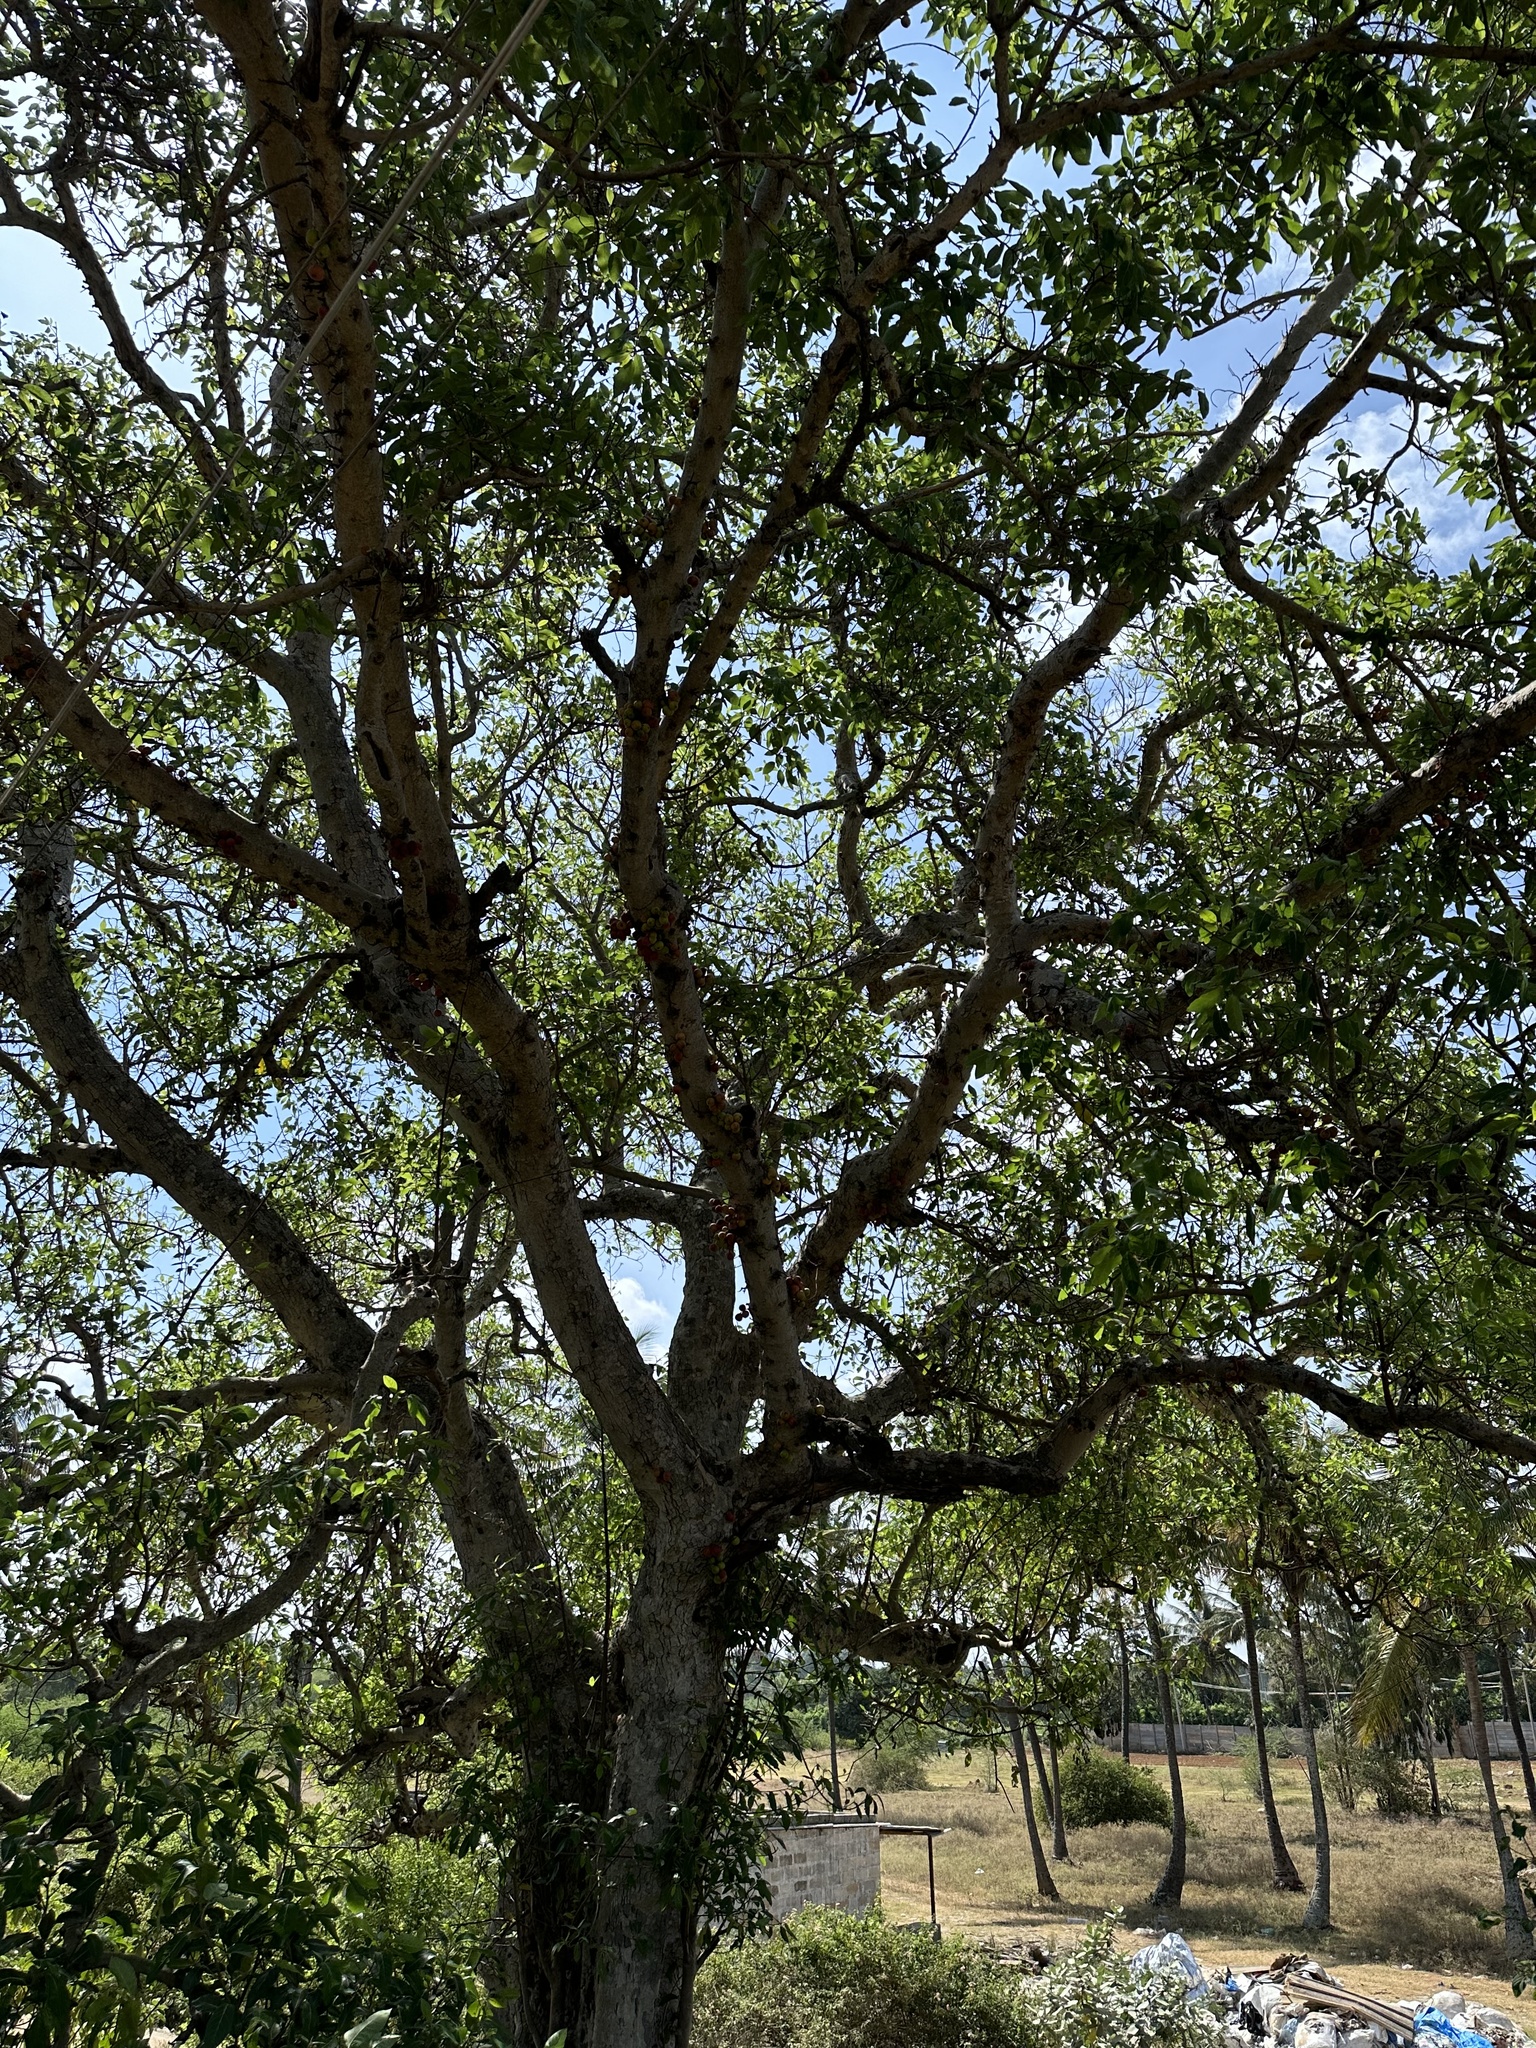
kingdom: Plantae
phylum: Tracheophyta
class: Magnoliopsida
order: Rosales
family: Moraceae
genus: Ficus
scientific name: Ficus racemosa
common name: Cluster fig
